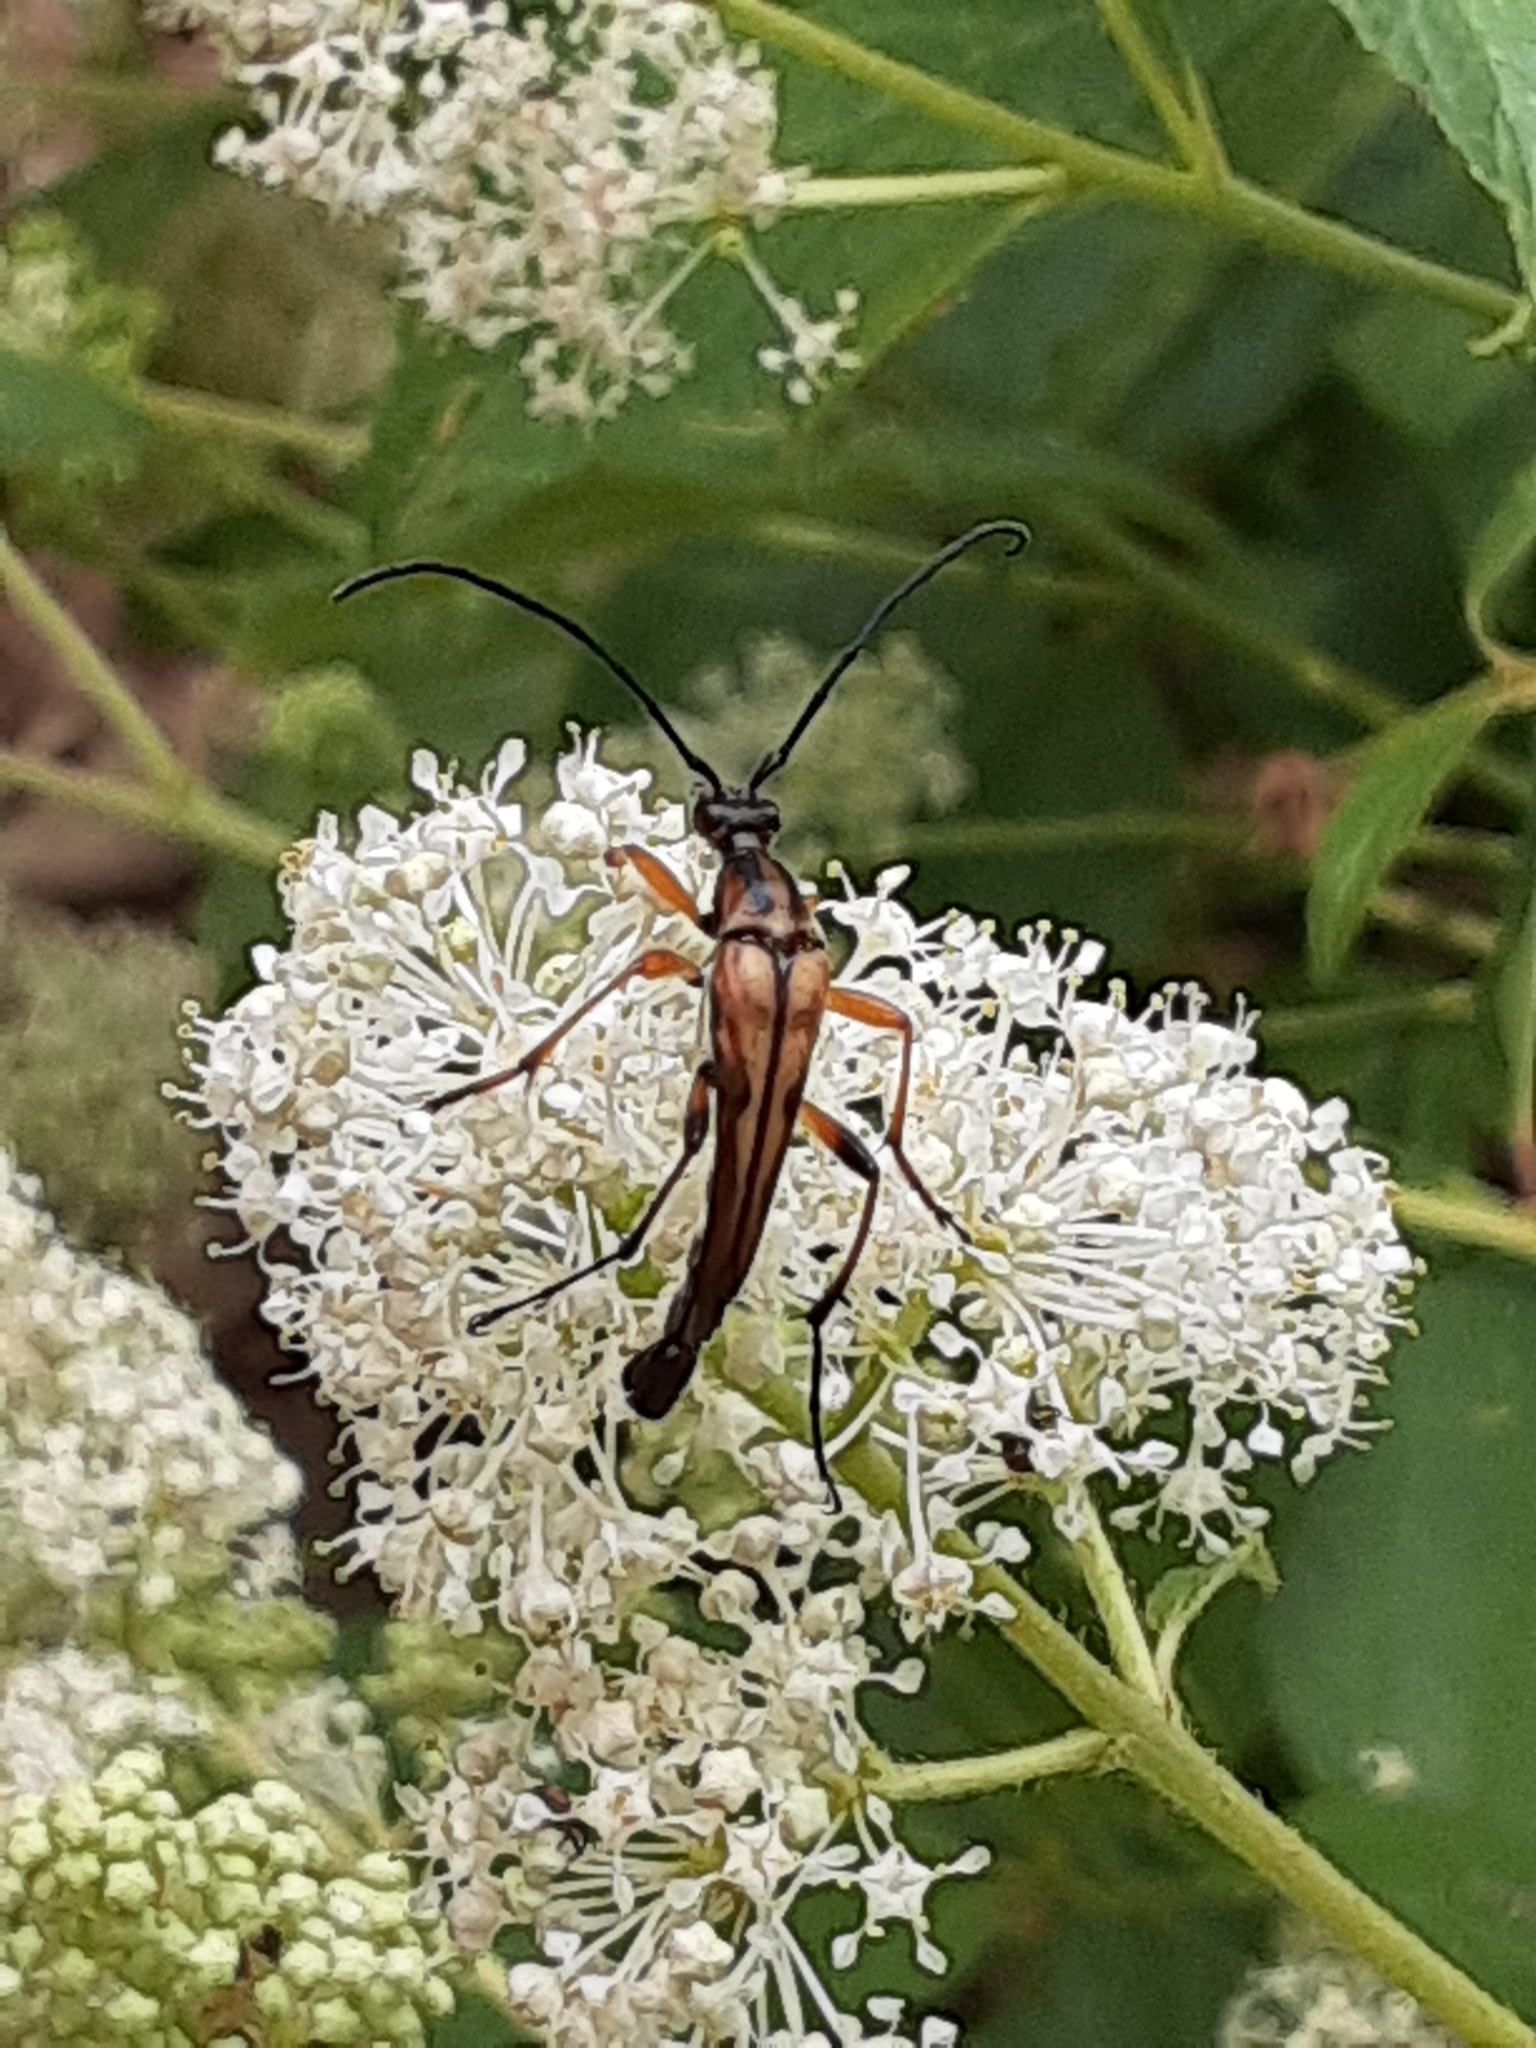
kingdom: Animalia
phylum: Arthropoda
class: Insecta
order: Coleoptera
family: Cerambycidae
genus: Strangalia
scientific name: Strangalia famelica
